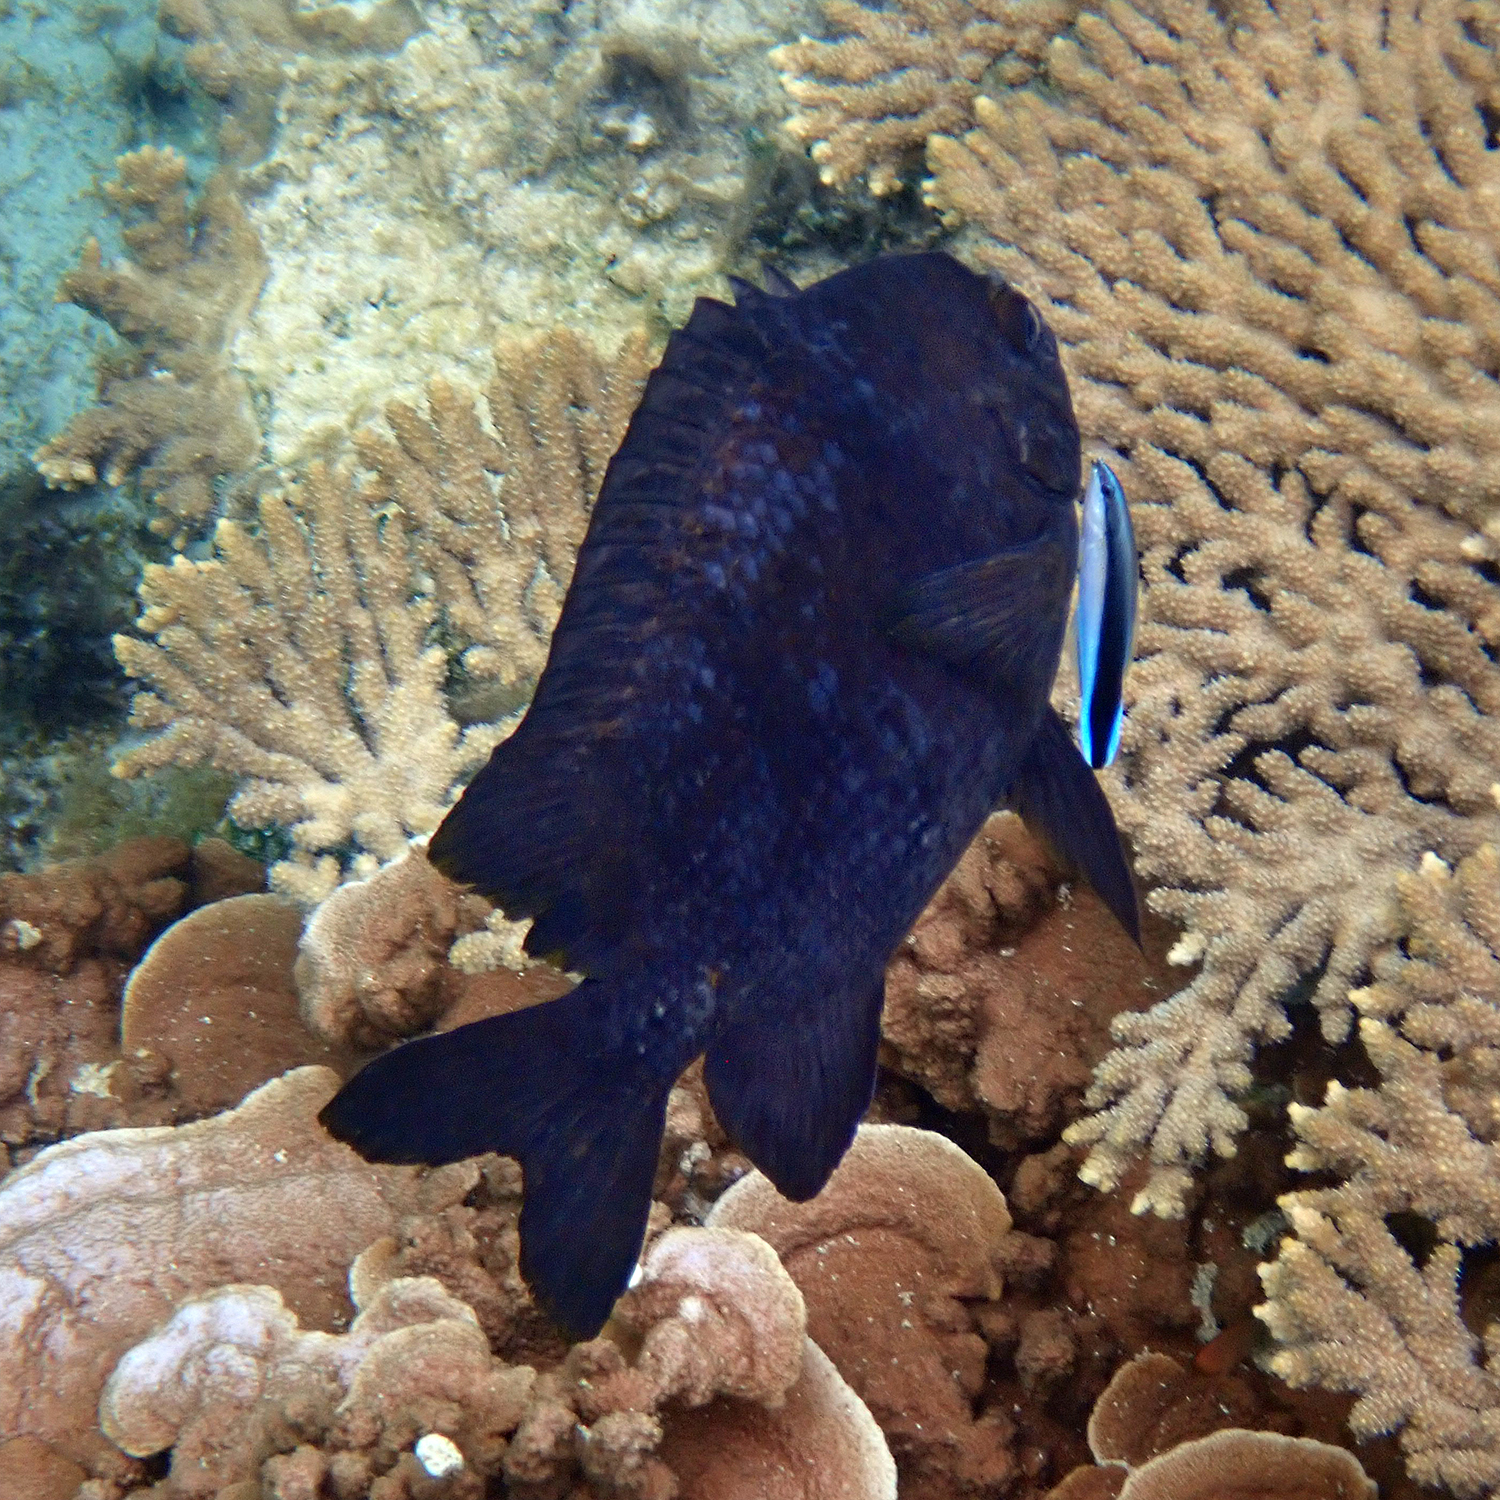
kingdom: Animalia
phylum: Chordata
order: Perciformes
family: Labridae
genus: Labroides
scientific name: Labroides dimidiatus
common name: Blue diesel wrasse
